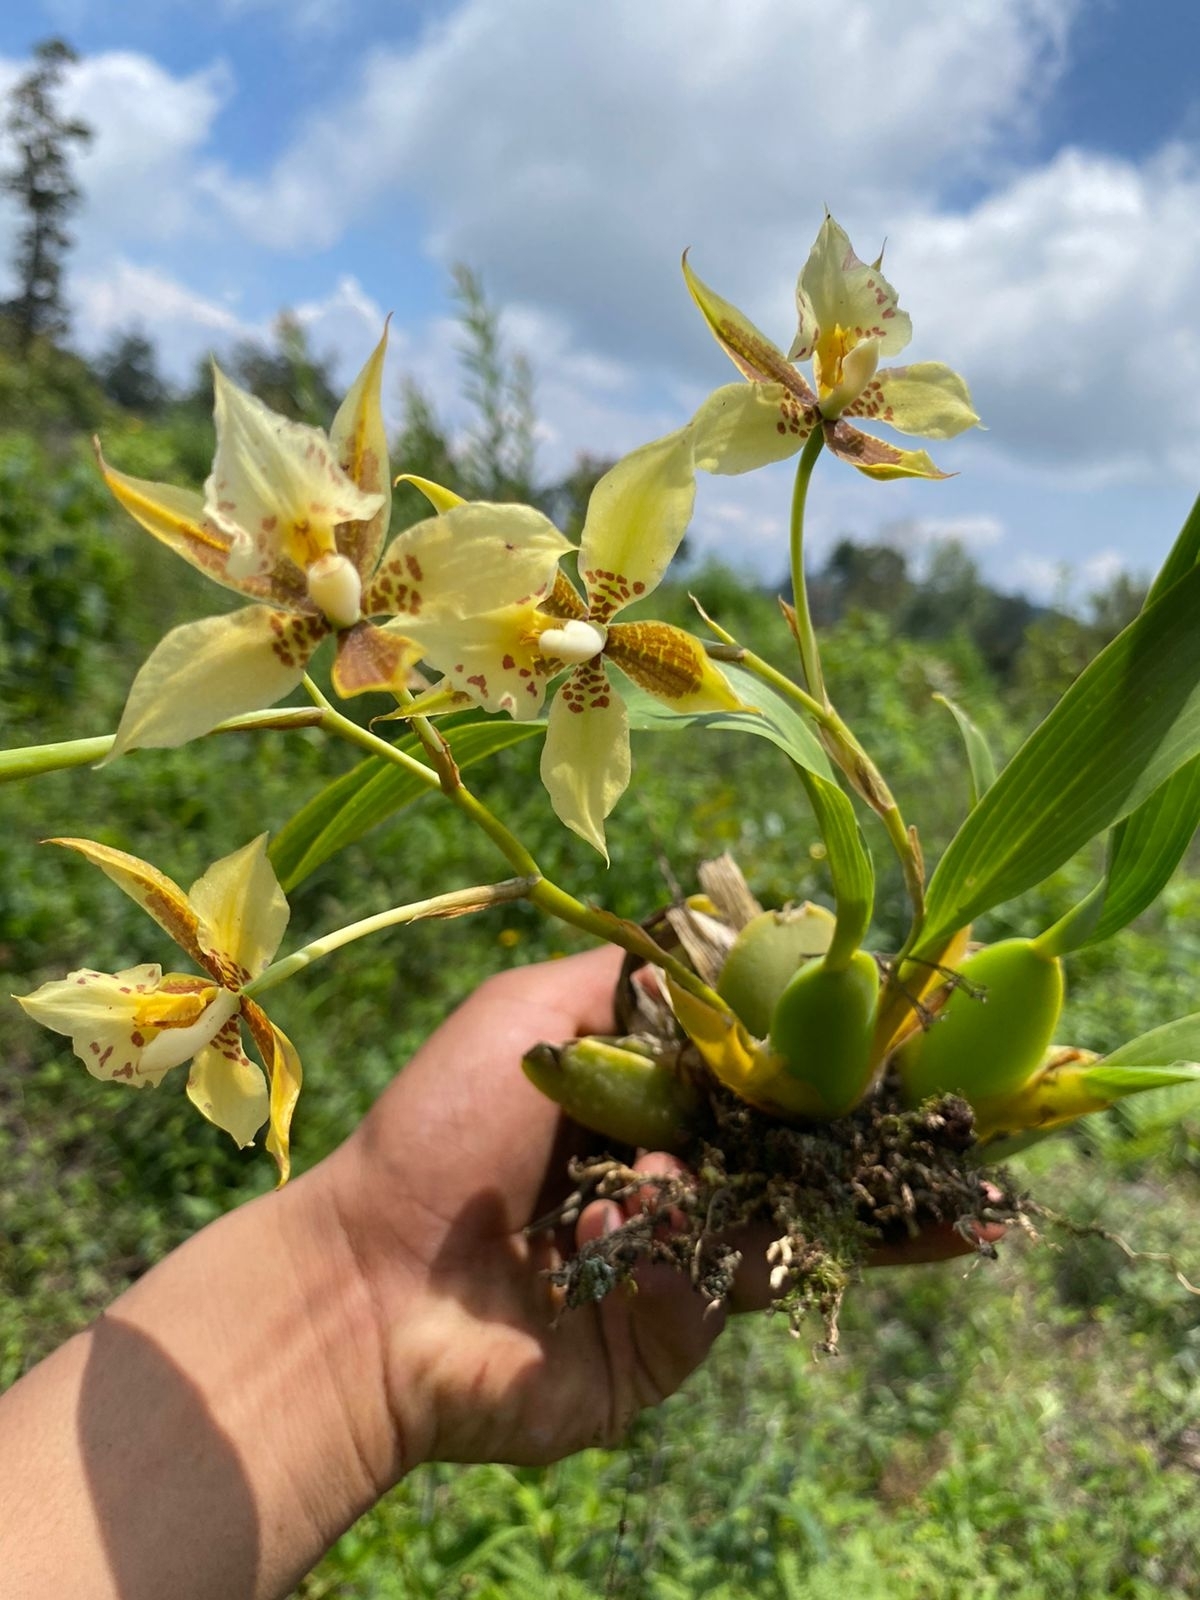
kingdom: Plantae
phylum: Tracheophyta
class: Liliopsida
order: Asparagales
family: Orchidaceae
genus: Rhynchostele
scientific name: Rhynchostele maculata
